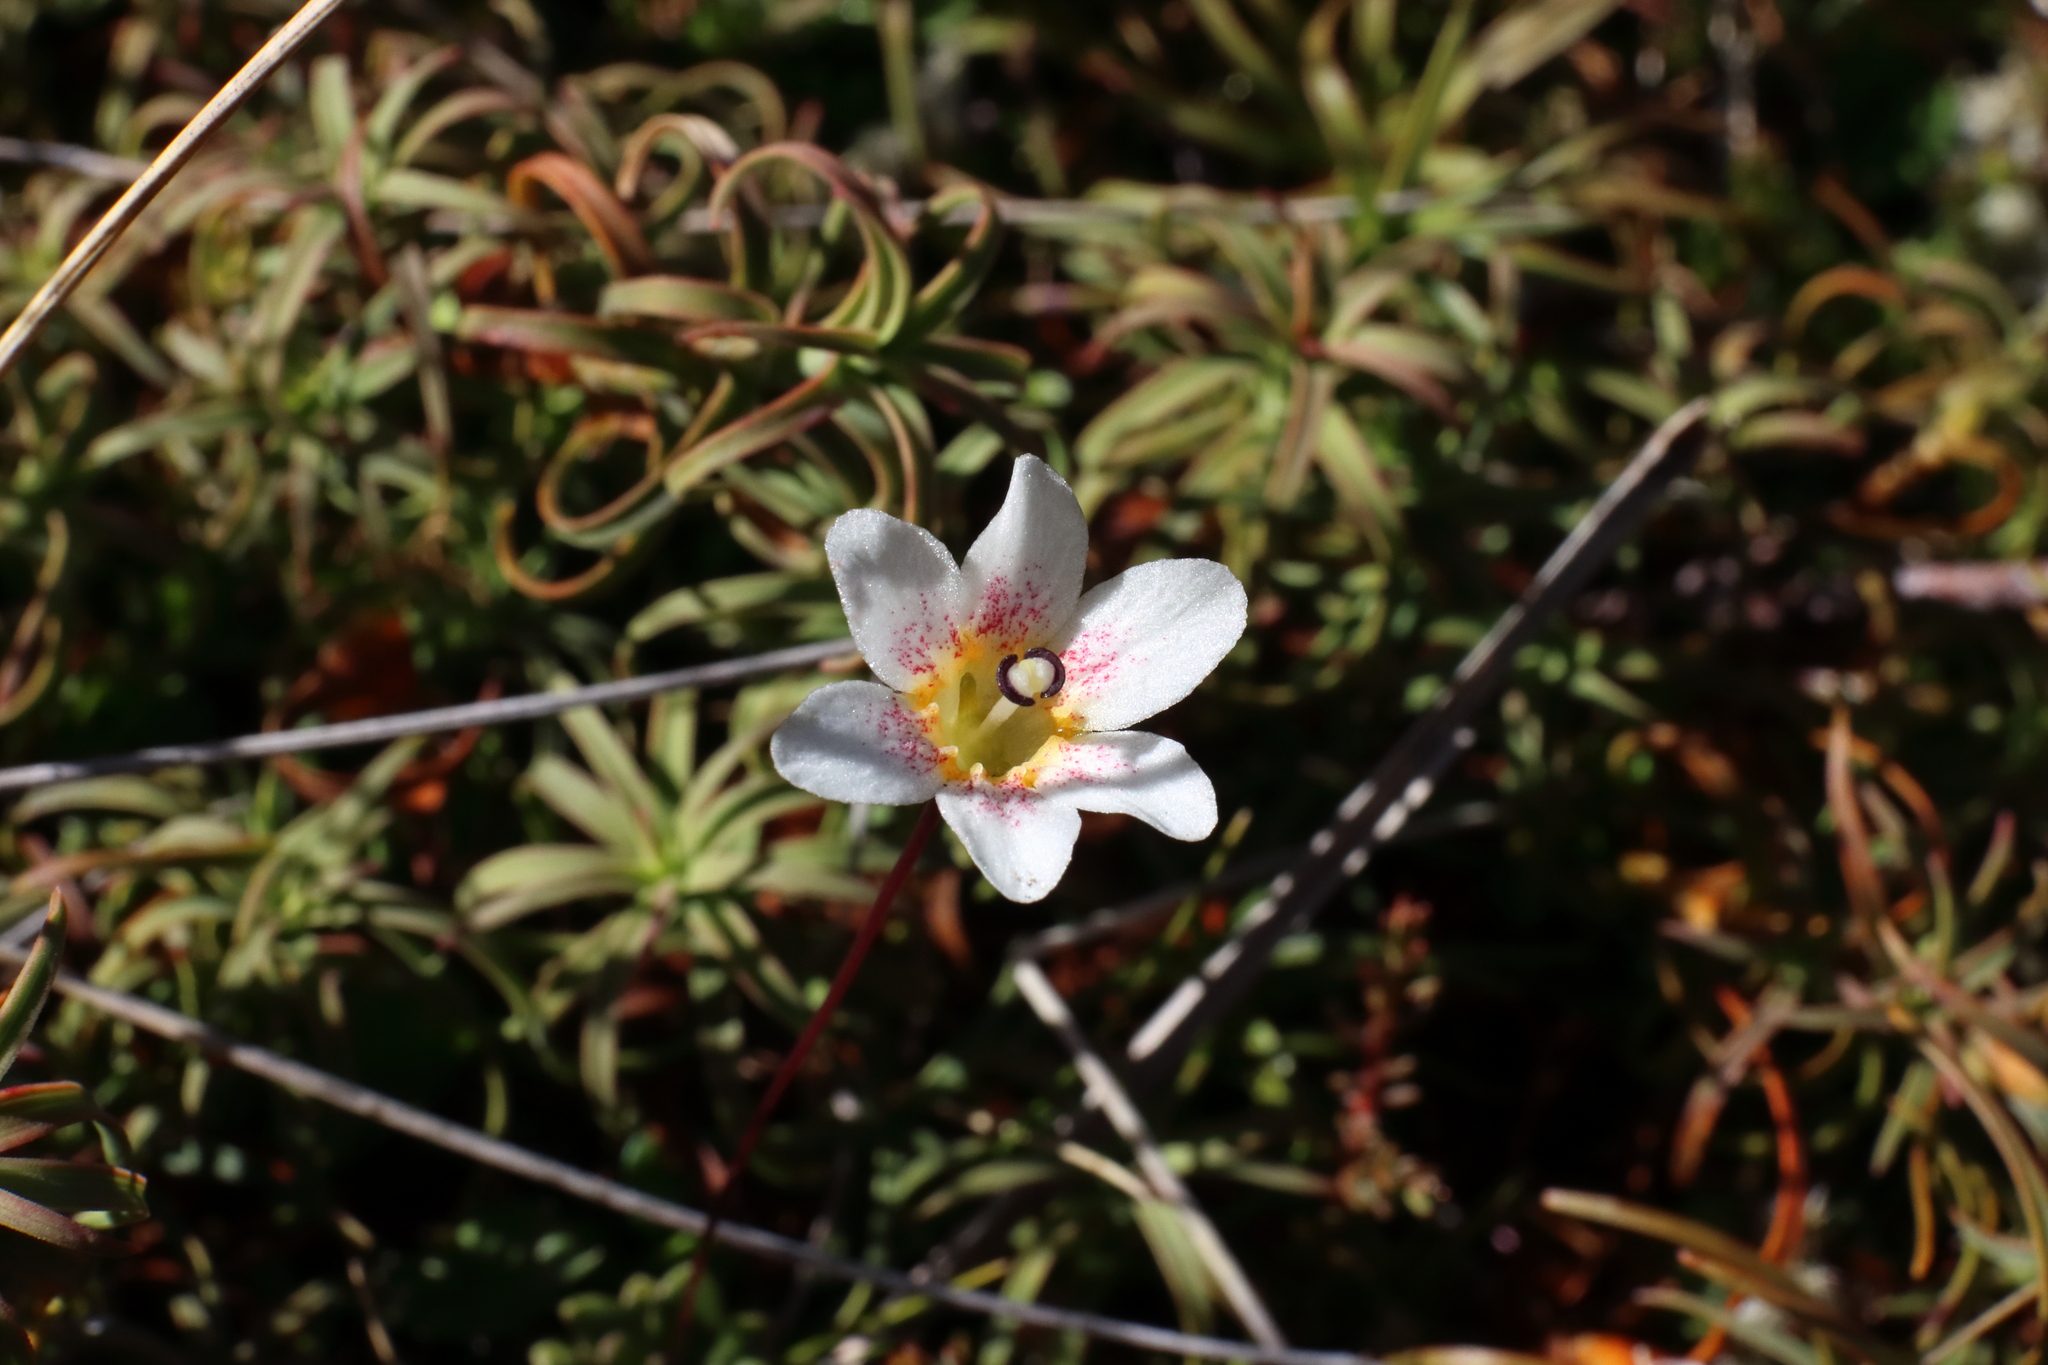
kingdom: Plantae
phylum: Tracheophyta
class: Magnoliopsida
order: Asterales
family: Stylidiaceae
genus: Forstera
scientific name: Forstera tenella
